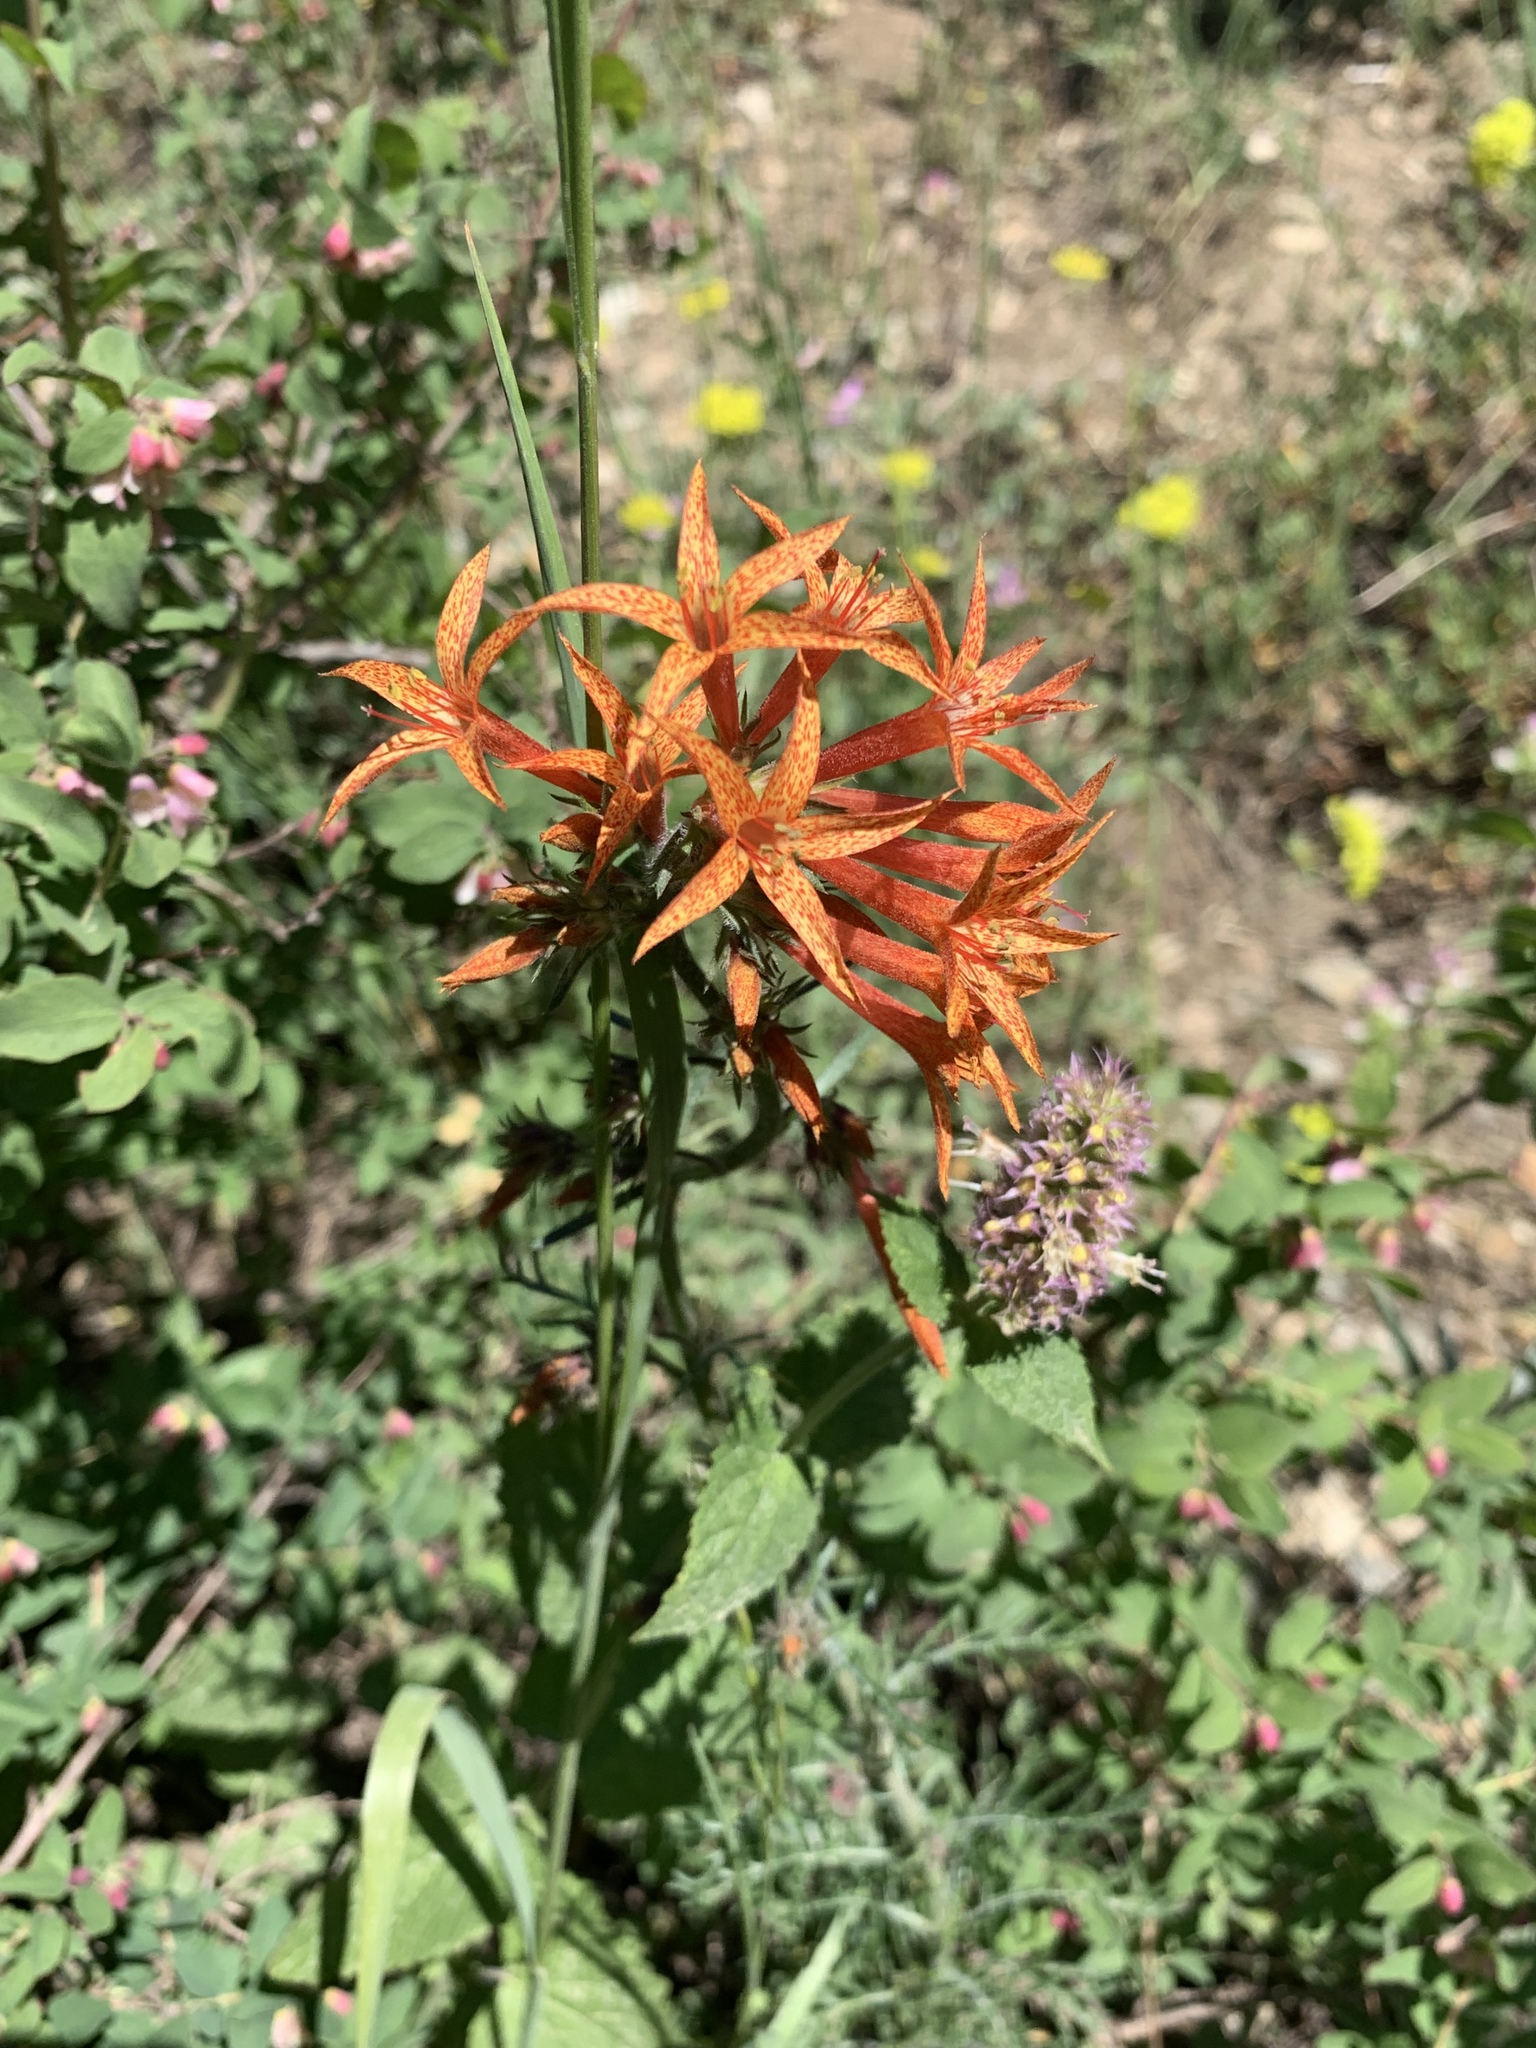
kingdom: Plantae
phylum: Tracheophyta
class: Magnoliopsida
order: Ericales
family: Polemoniaceae
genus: Ipomopsis
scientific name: Ipomopsis aggregata
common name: Scarlet gilia
